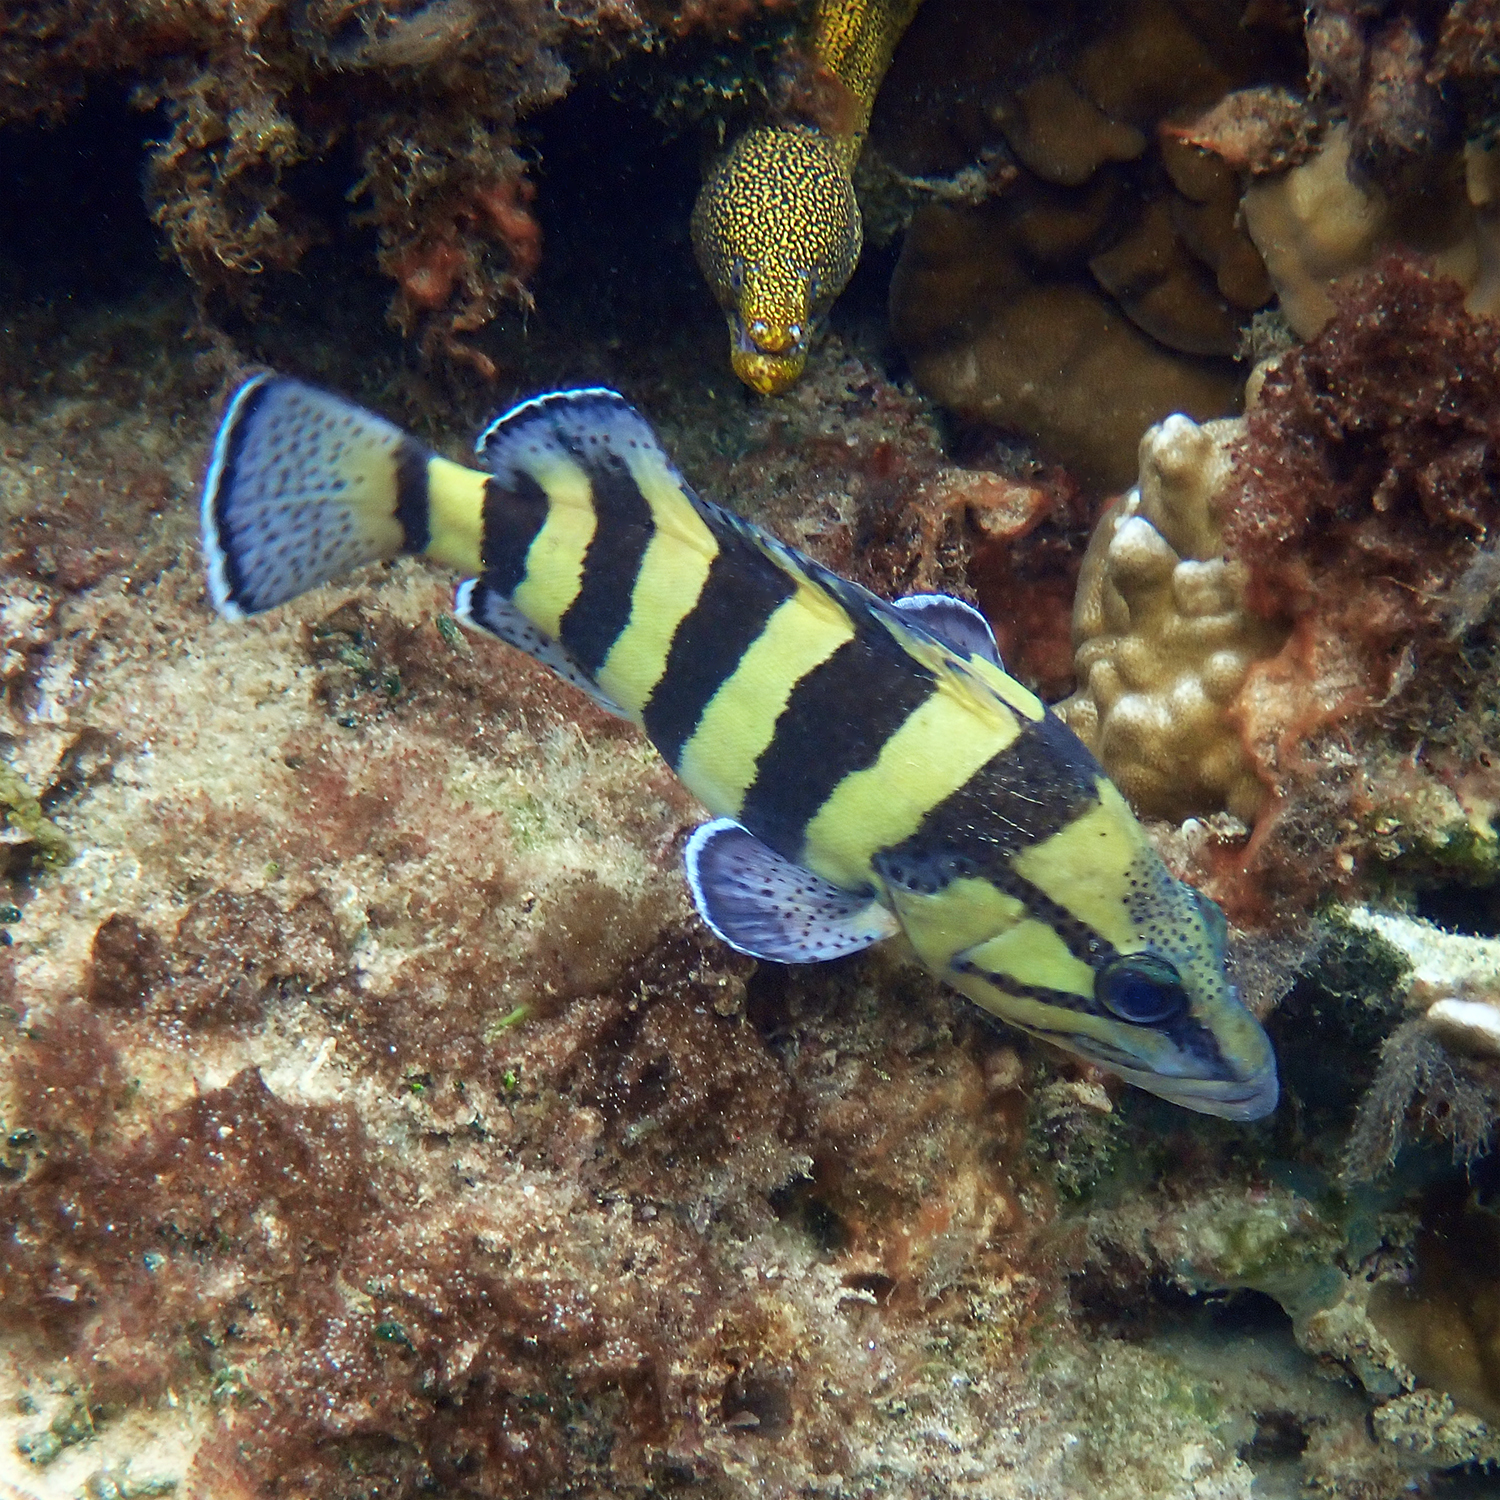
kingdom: Animalia
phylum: Chordata
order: Perciformes
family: Serranidae
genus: Acanthistius
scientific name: Acanthistius cinctus
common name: Girdled rock cod
